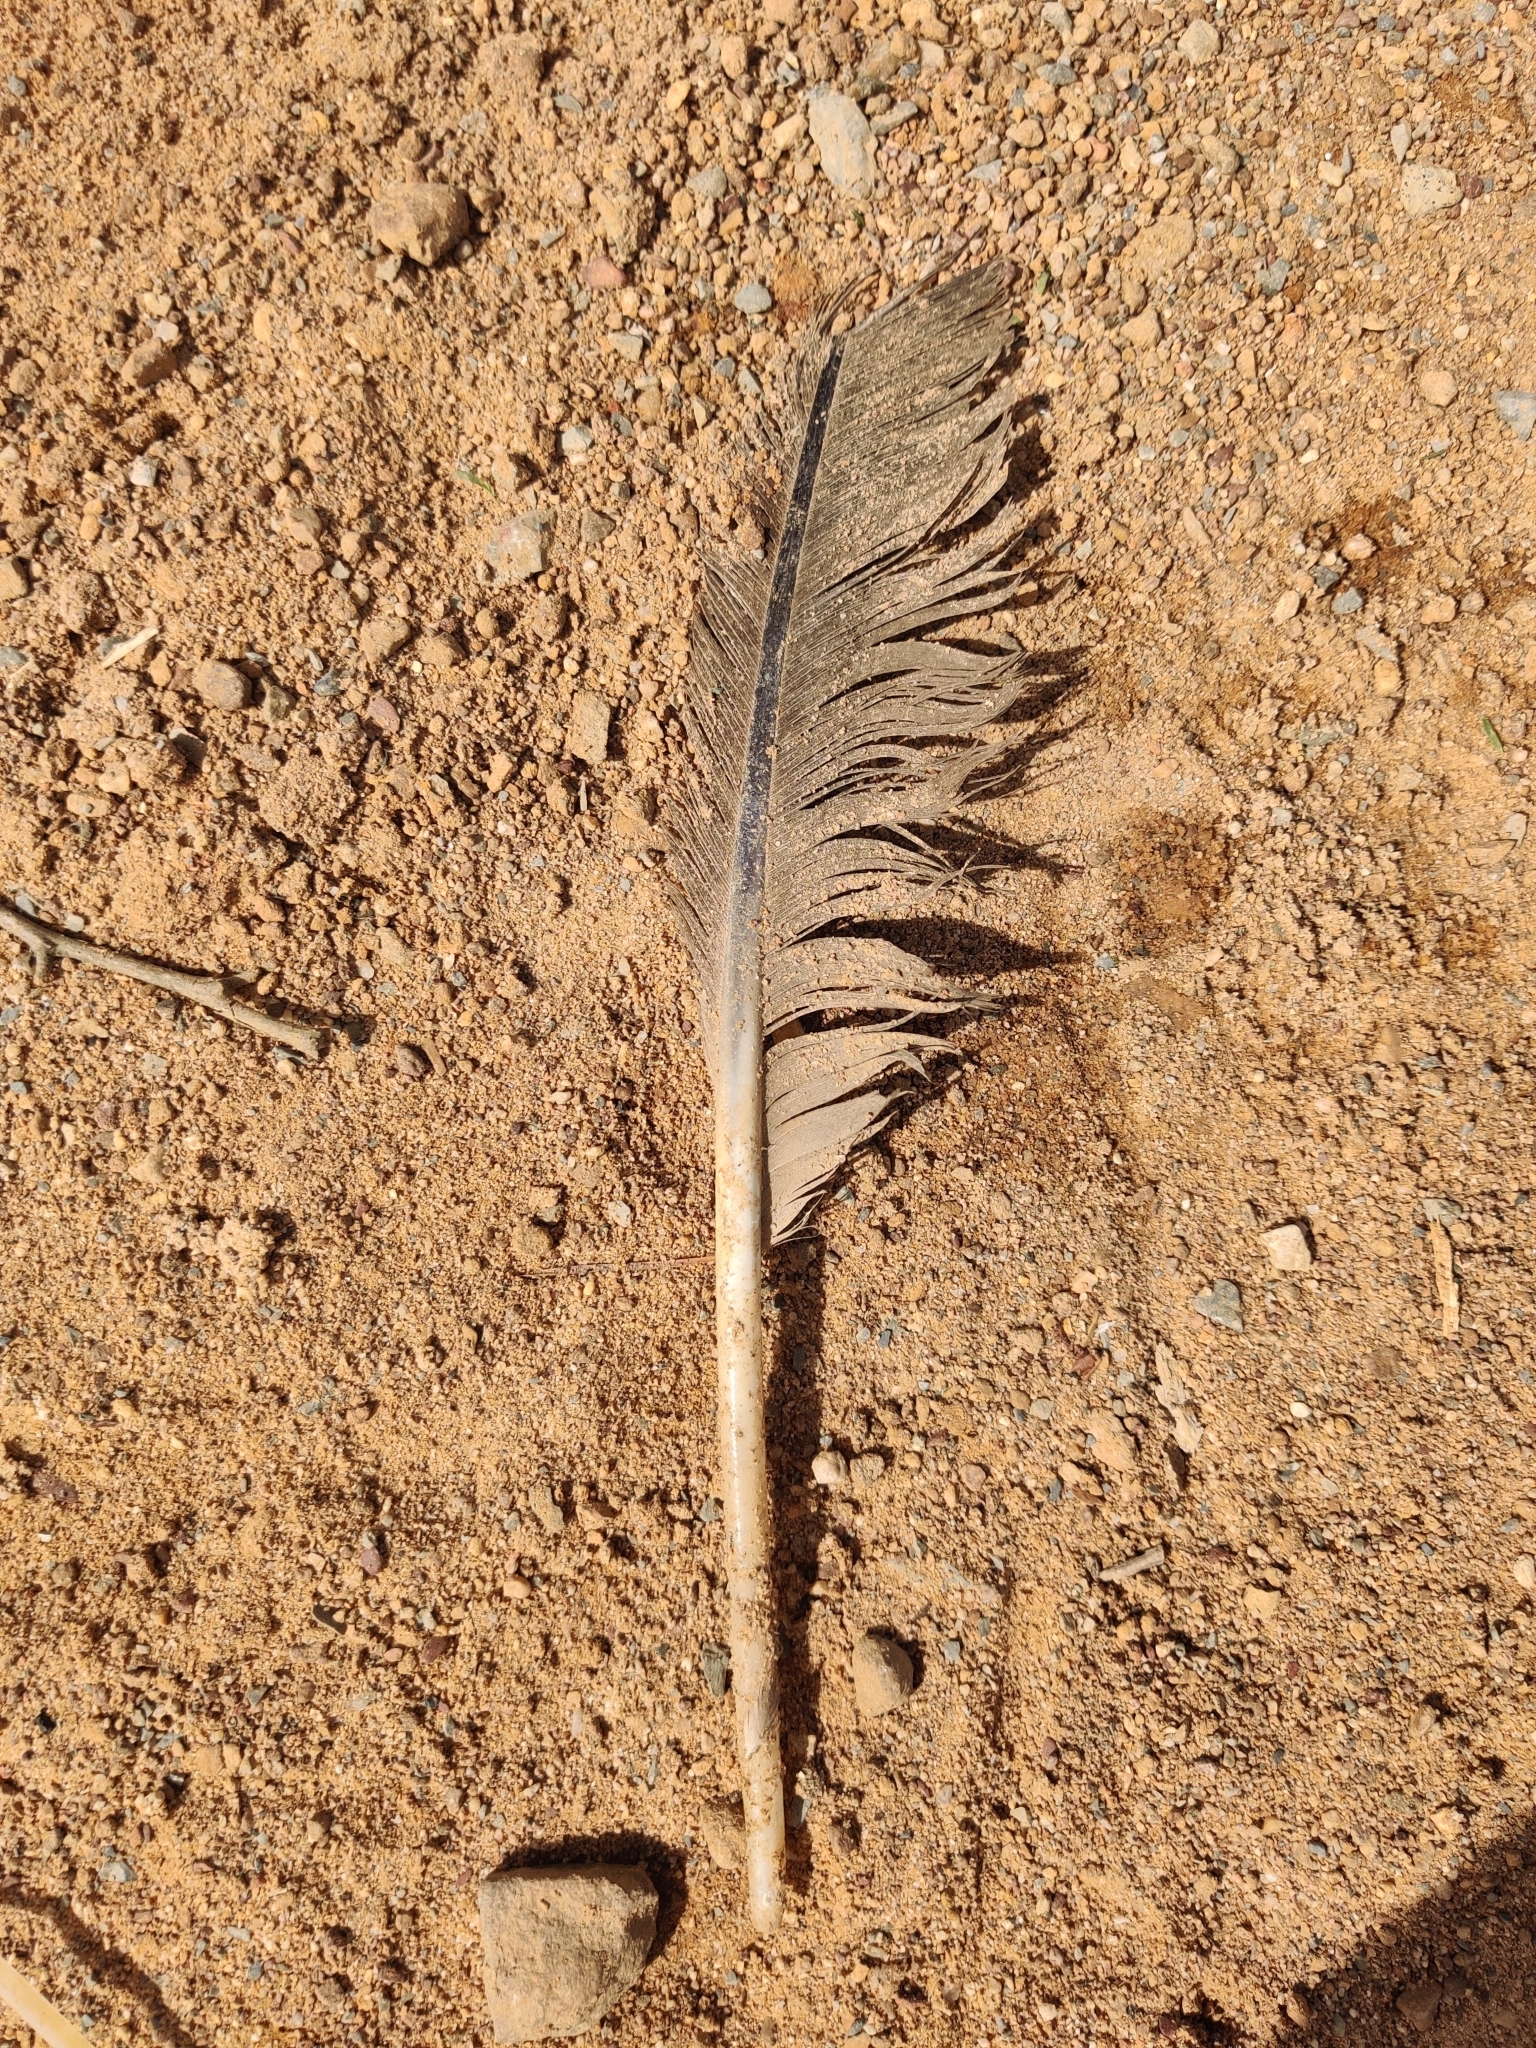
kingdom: Animalia
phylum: Chordata
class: Aves
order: Anseriformes
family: Anatidae
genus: Branta
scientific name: Branta canadensis
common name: Canada goose
